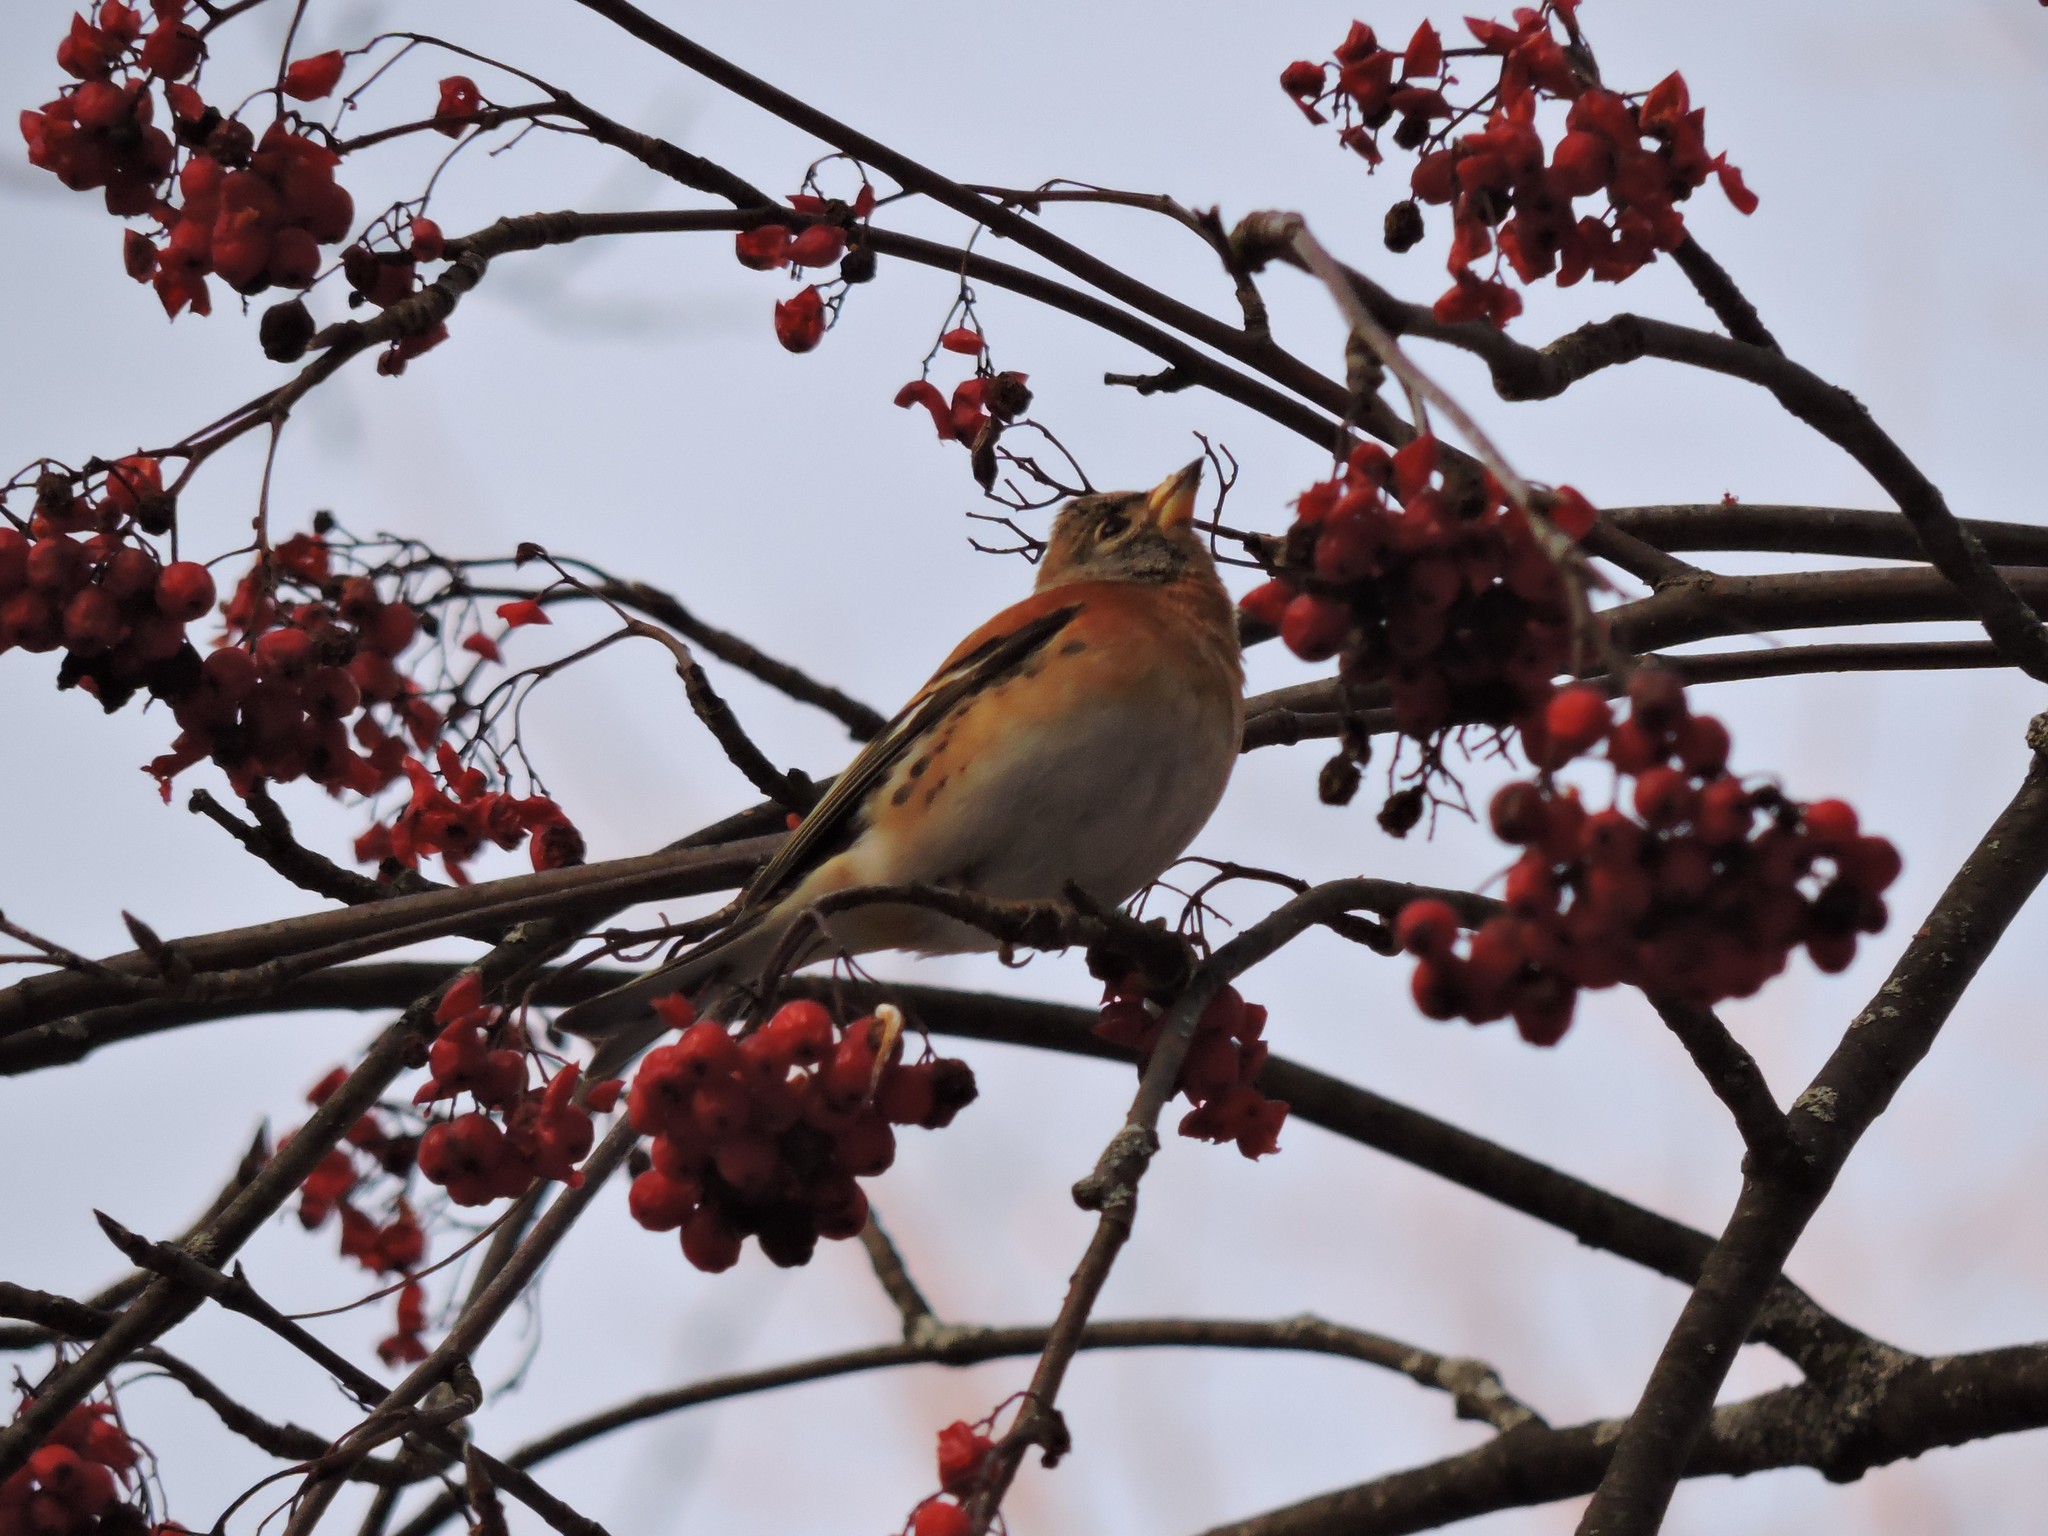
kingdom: Animalia
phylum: Chordata
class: Aves
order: Passeriformes
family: Fringillidae
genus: Fringilla
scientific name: Fringilla montifringilla
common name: Brambling
